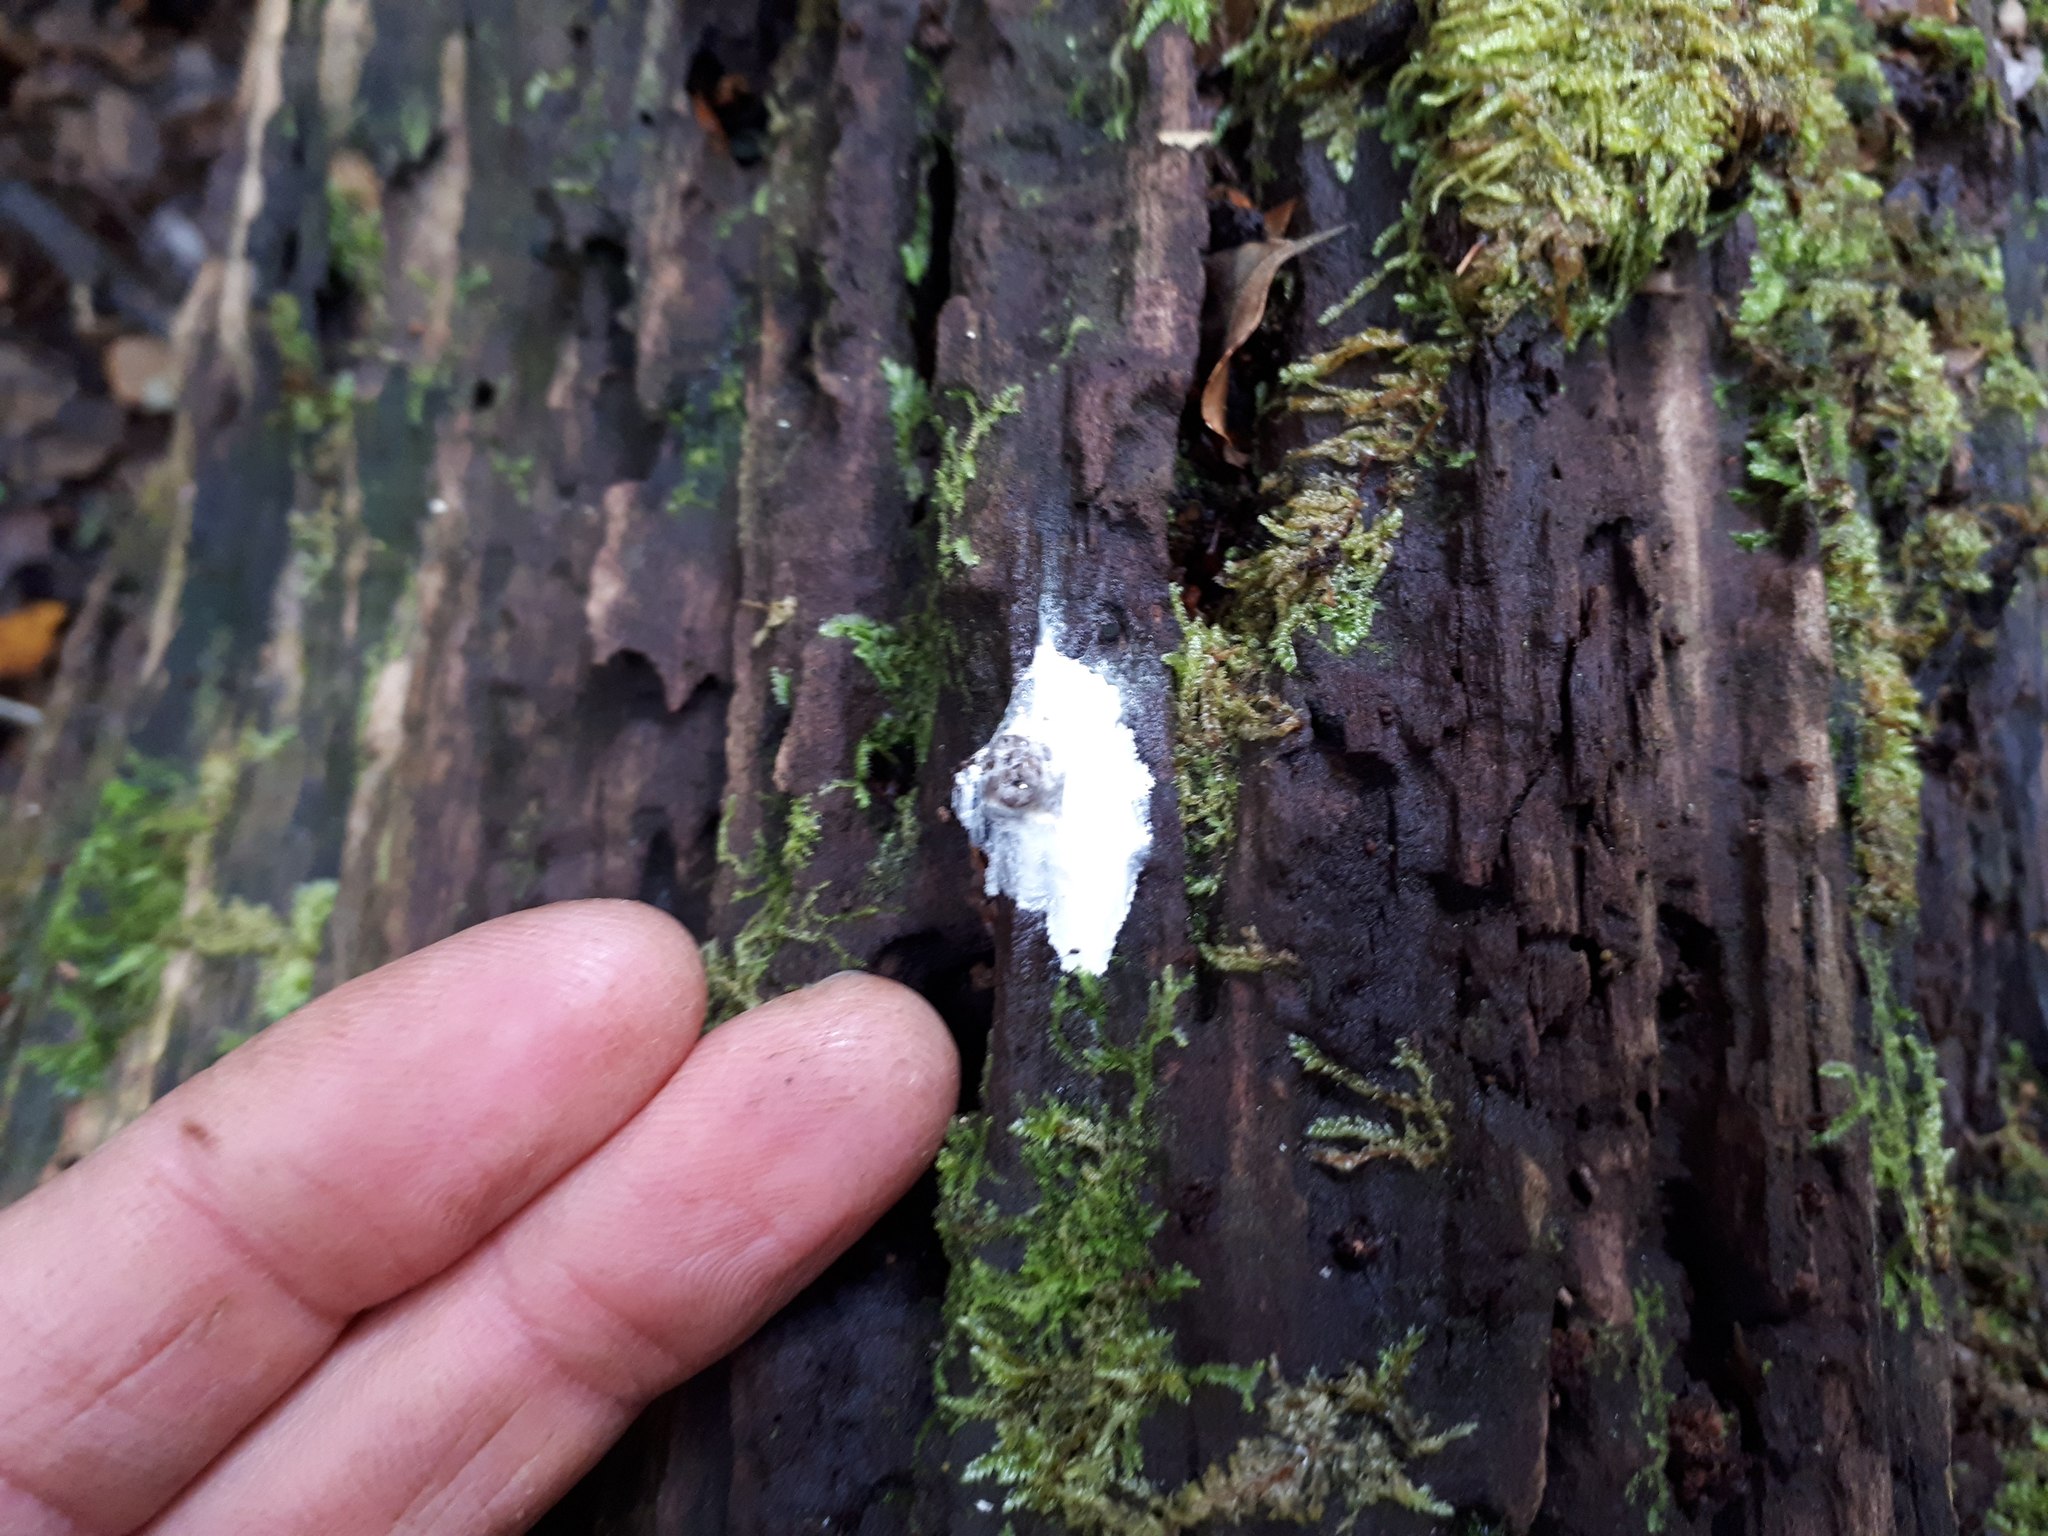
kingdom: Animalia
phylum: Chordata
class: Aves
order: Passeriformes
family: Petroicidae
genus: Petroica
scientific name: Petroica australis
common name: New zealand robin
